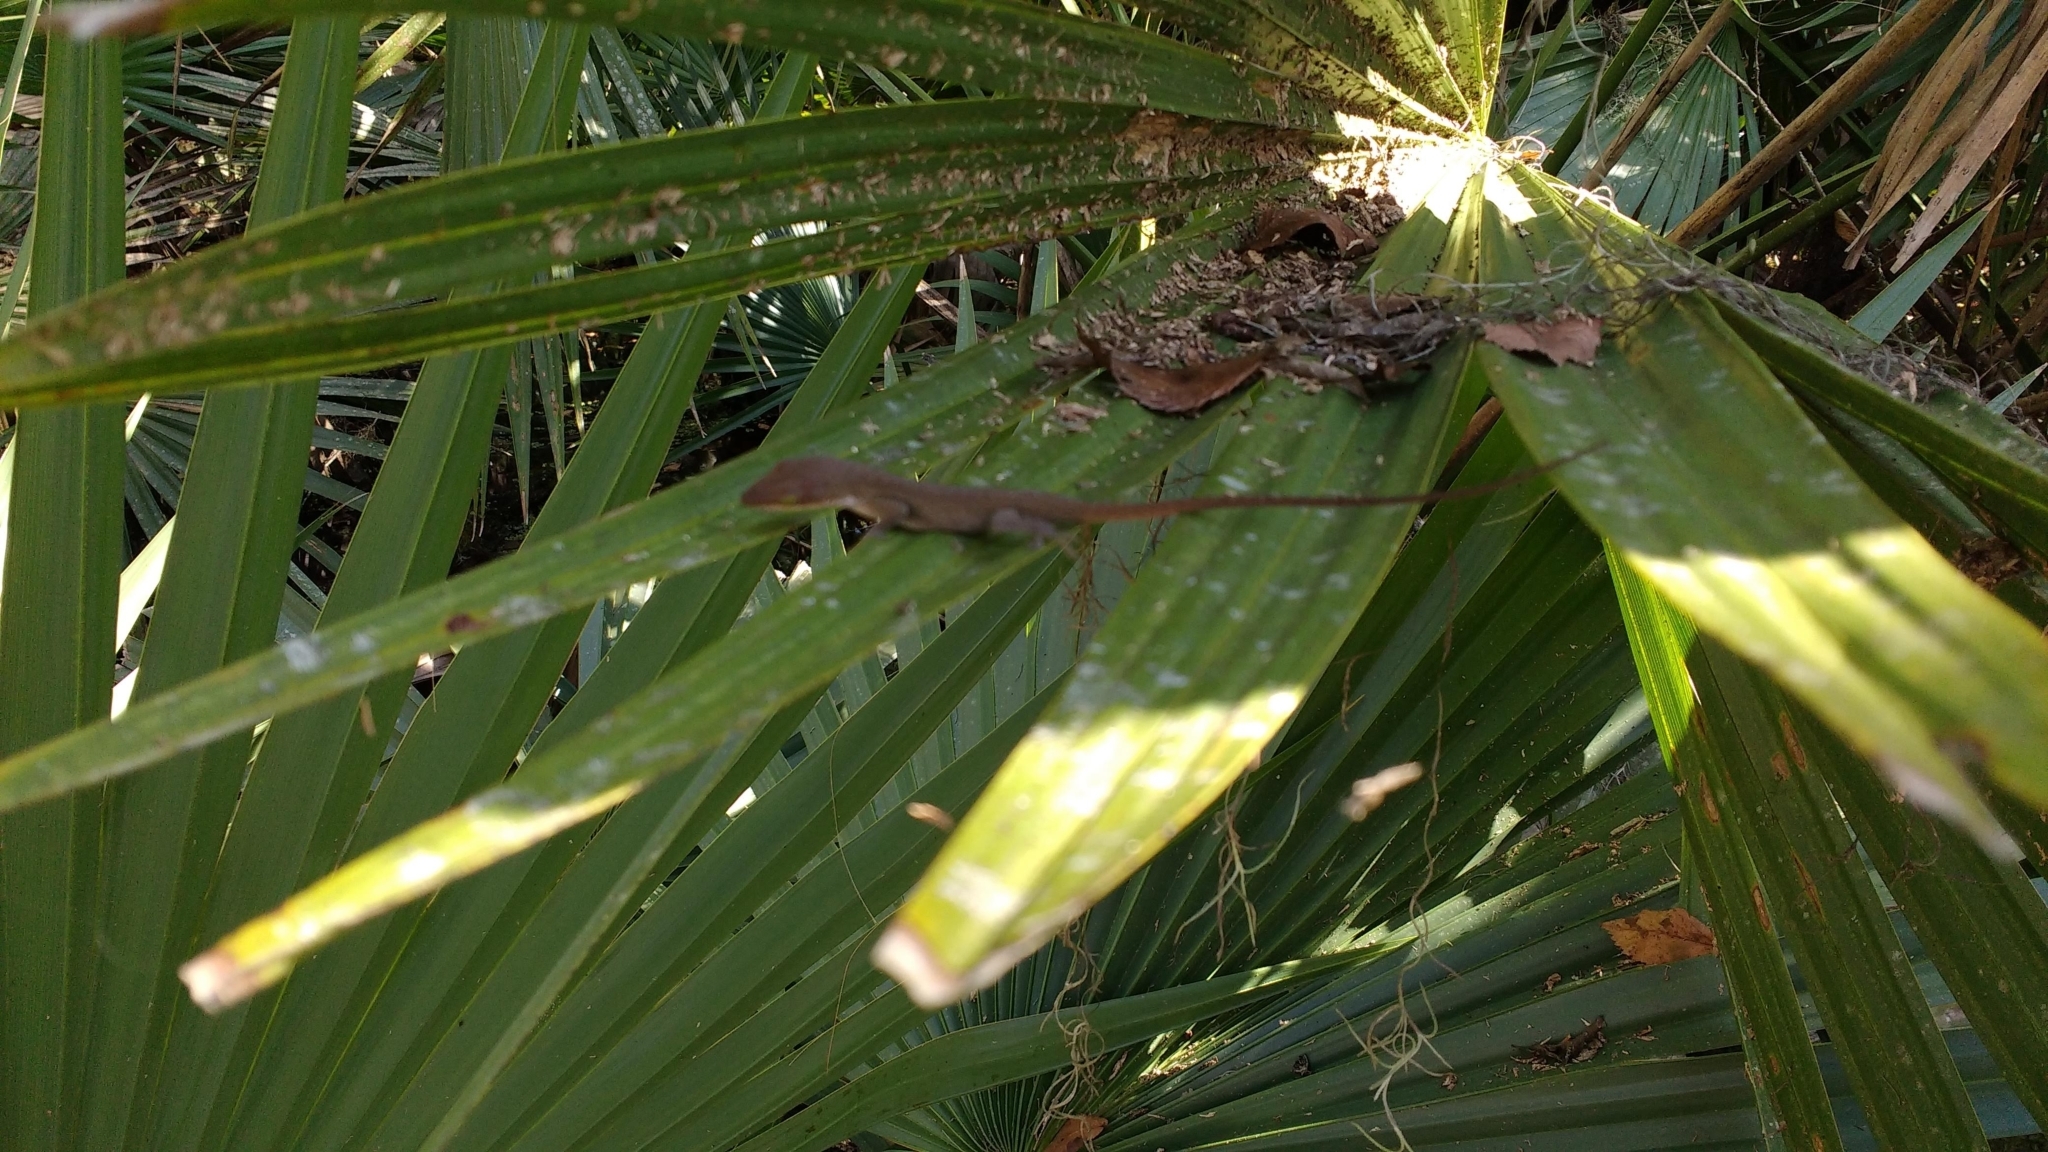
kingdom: Animalia
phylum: Chordata
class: Squamata
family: Dactyloidae
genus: Anolis
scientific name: Anolis carolinensis
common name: Green anole
